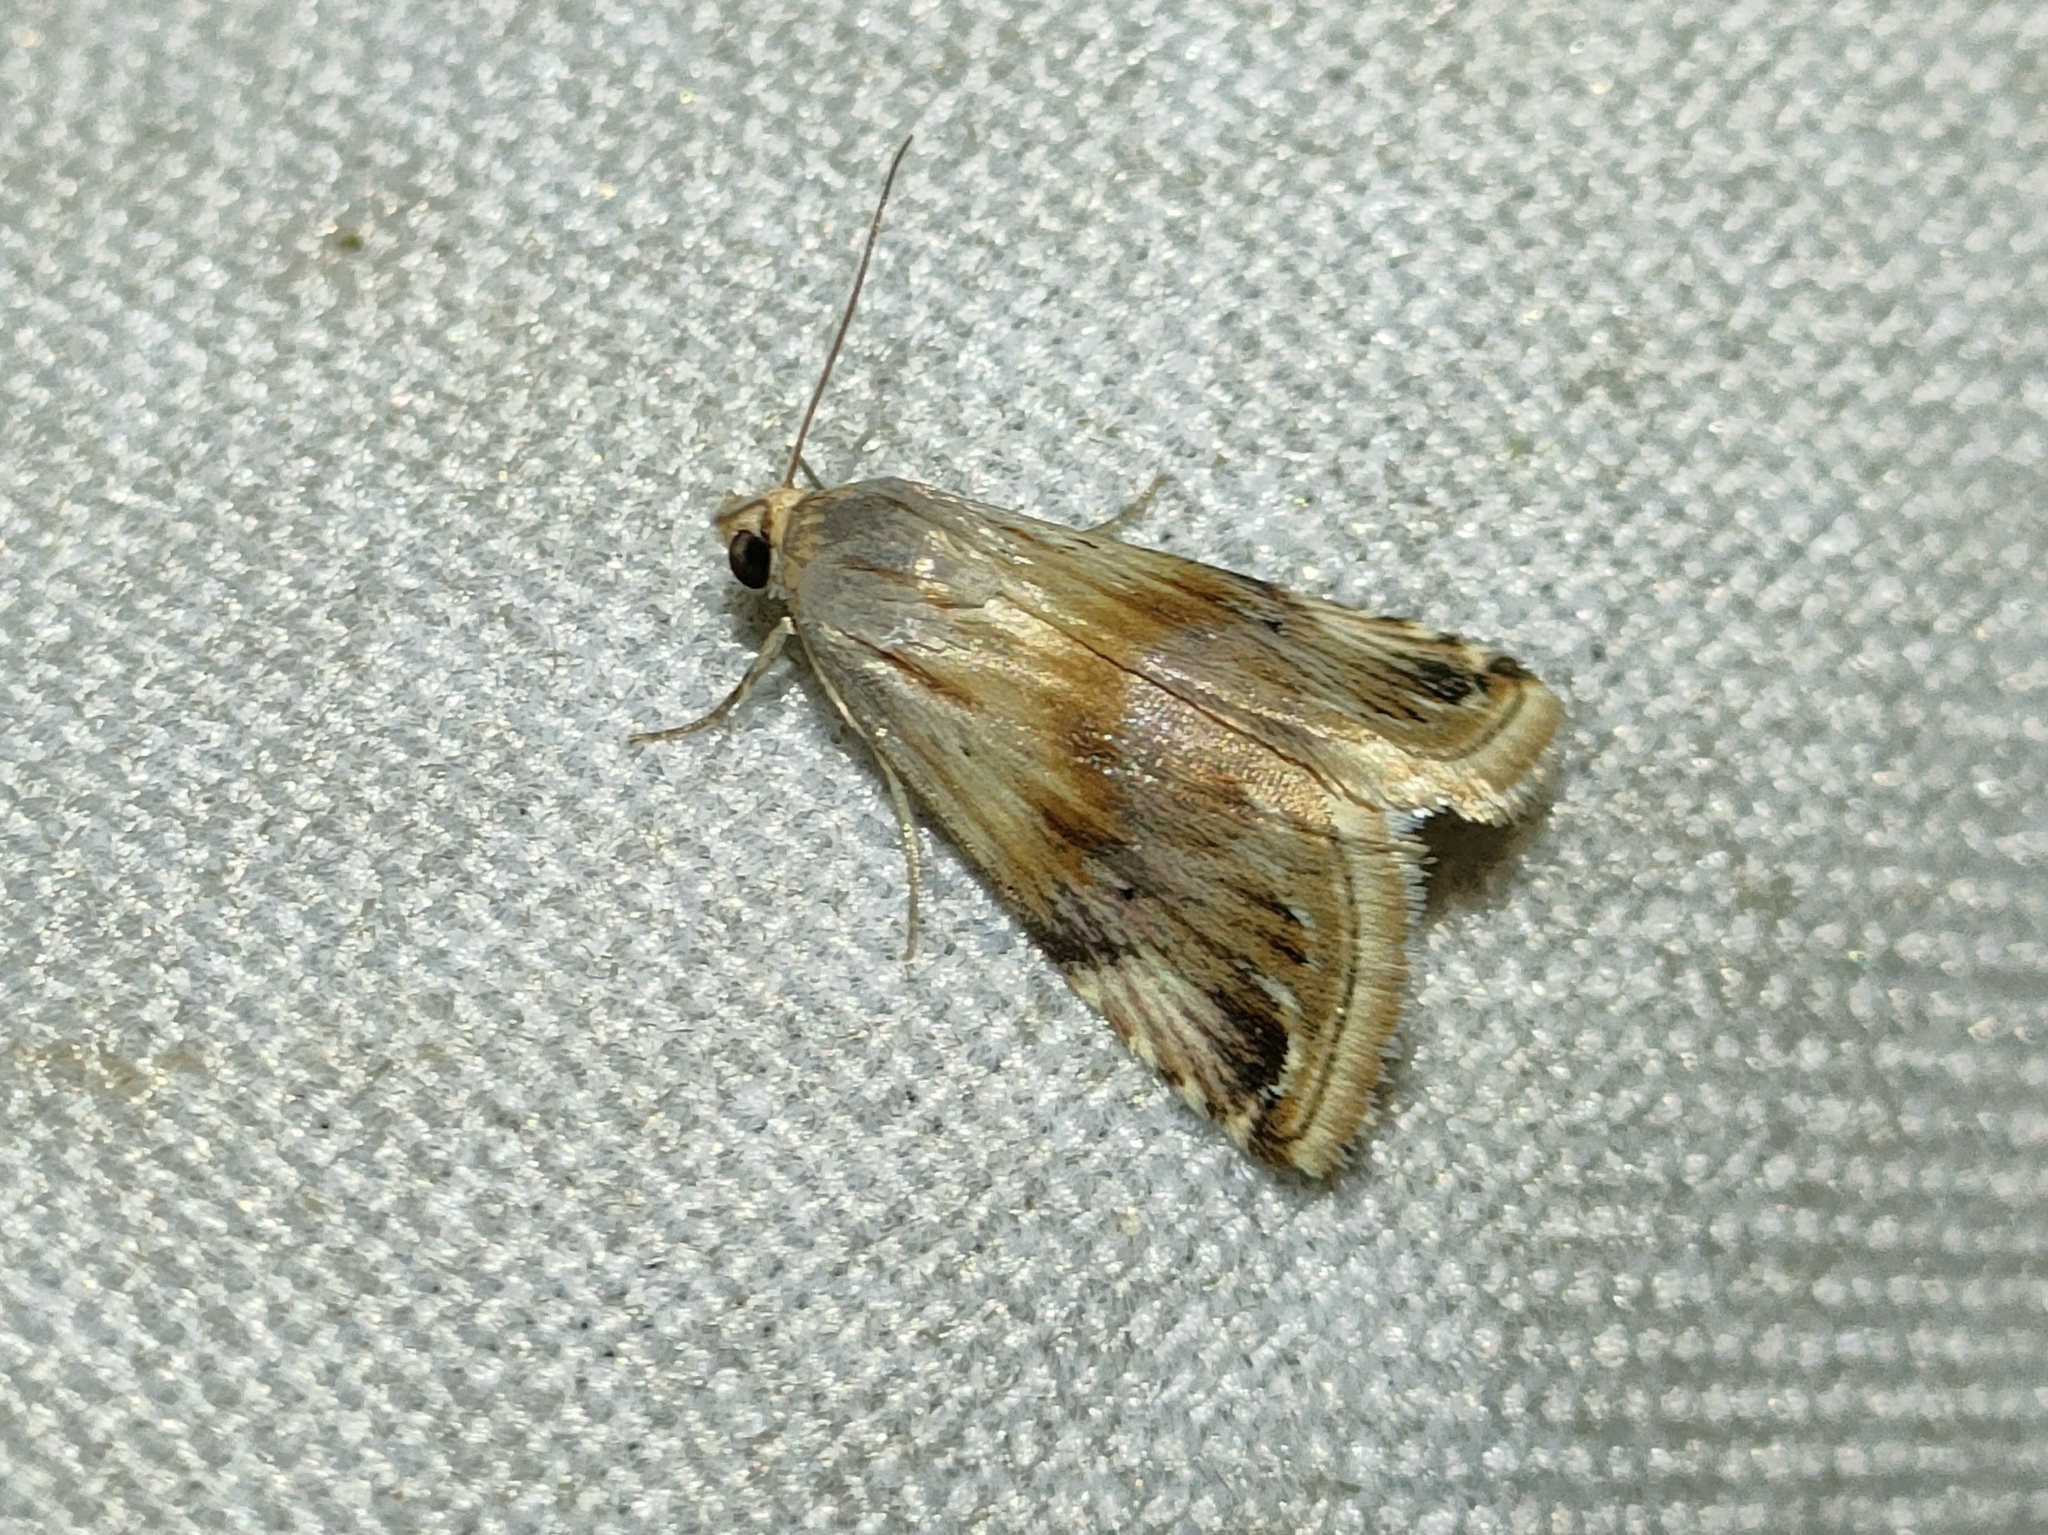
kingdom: Animalia
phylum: Arthropoda
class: Insecta
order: Lepidoptera
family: Noctuidae
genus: Eublemma
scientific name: Eublemma ostrina
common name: Purple marbled
